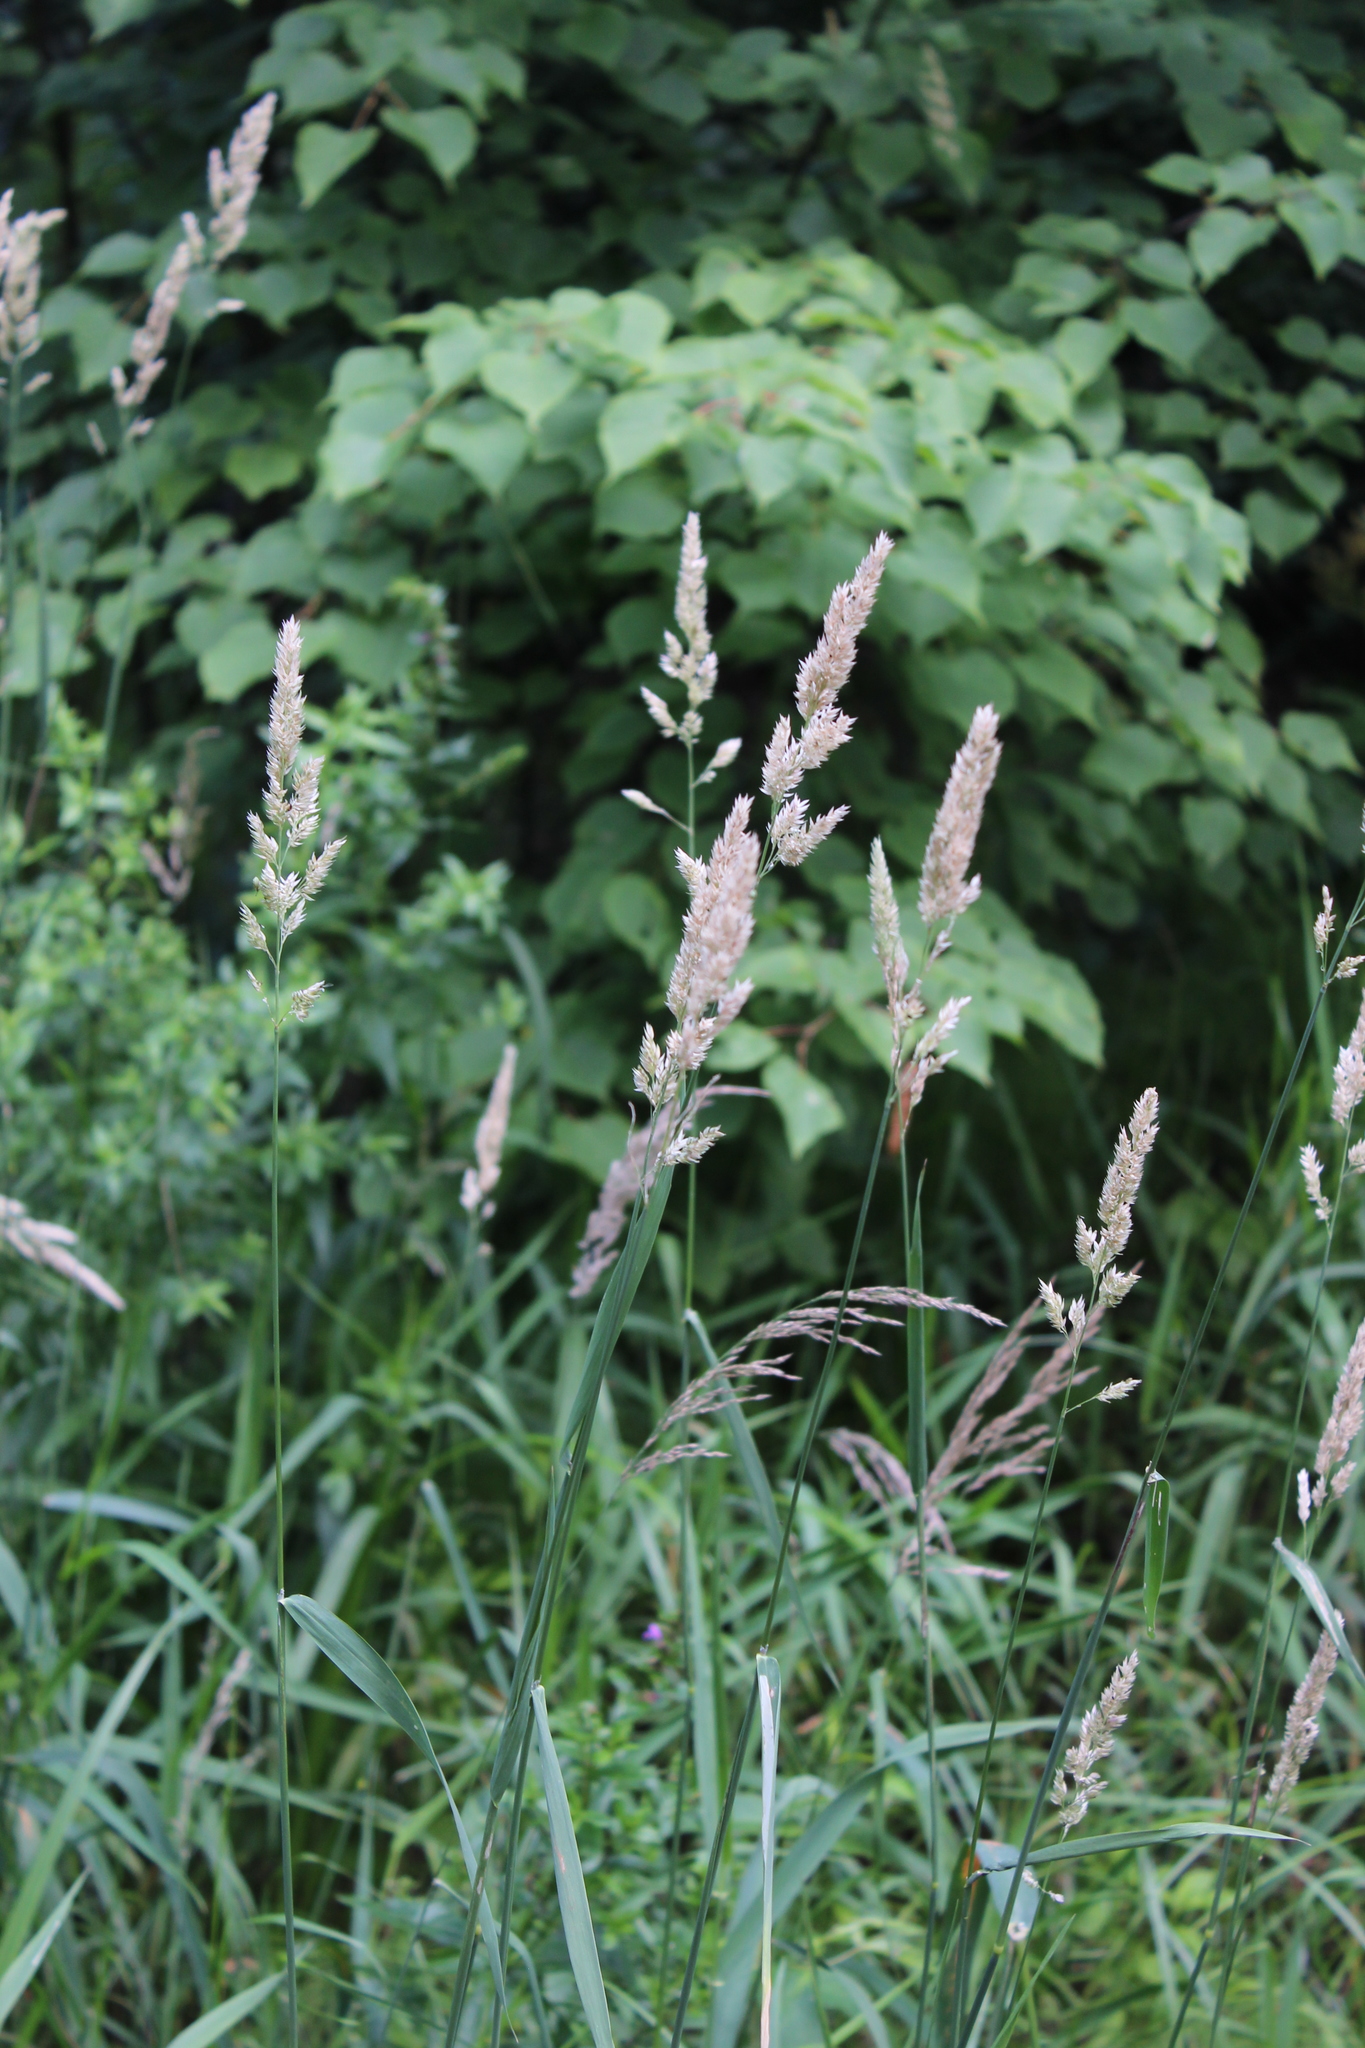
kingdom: Plantae
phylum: Tracheophyta
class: Liliopsida
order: Poales
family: Poaceae
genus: Phalaris
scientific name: Phalaris arundinacea
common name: Reed canary-grass
